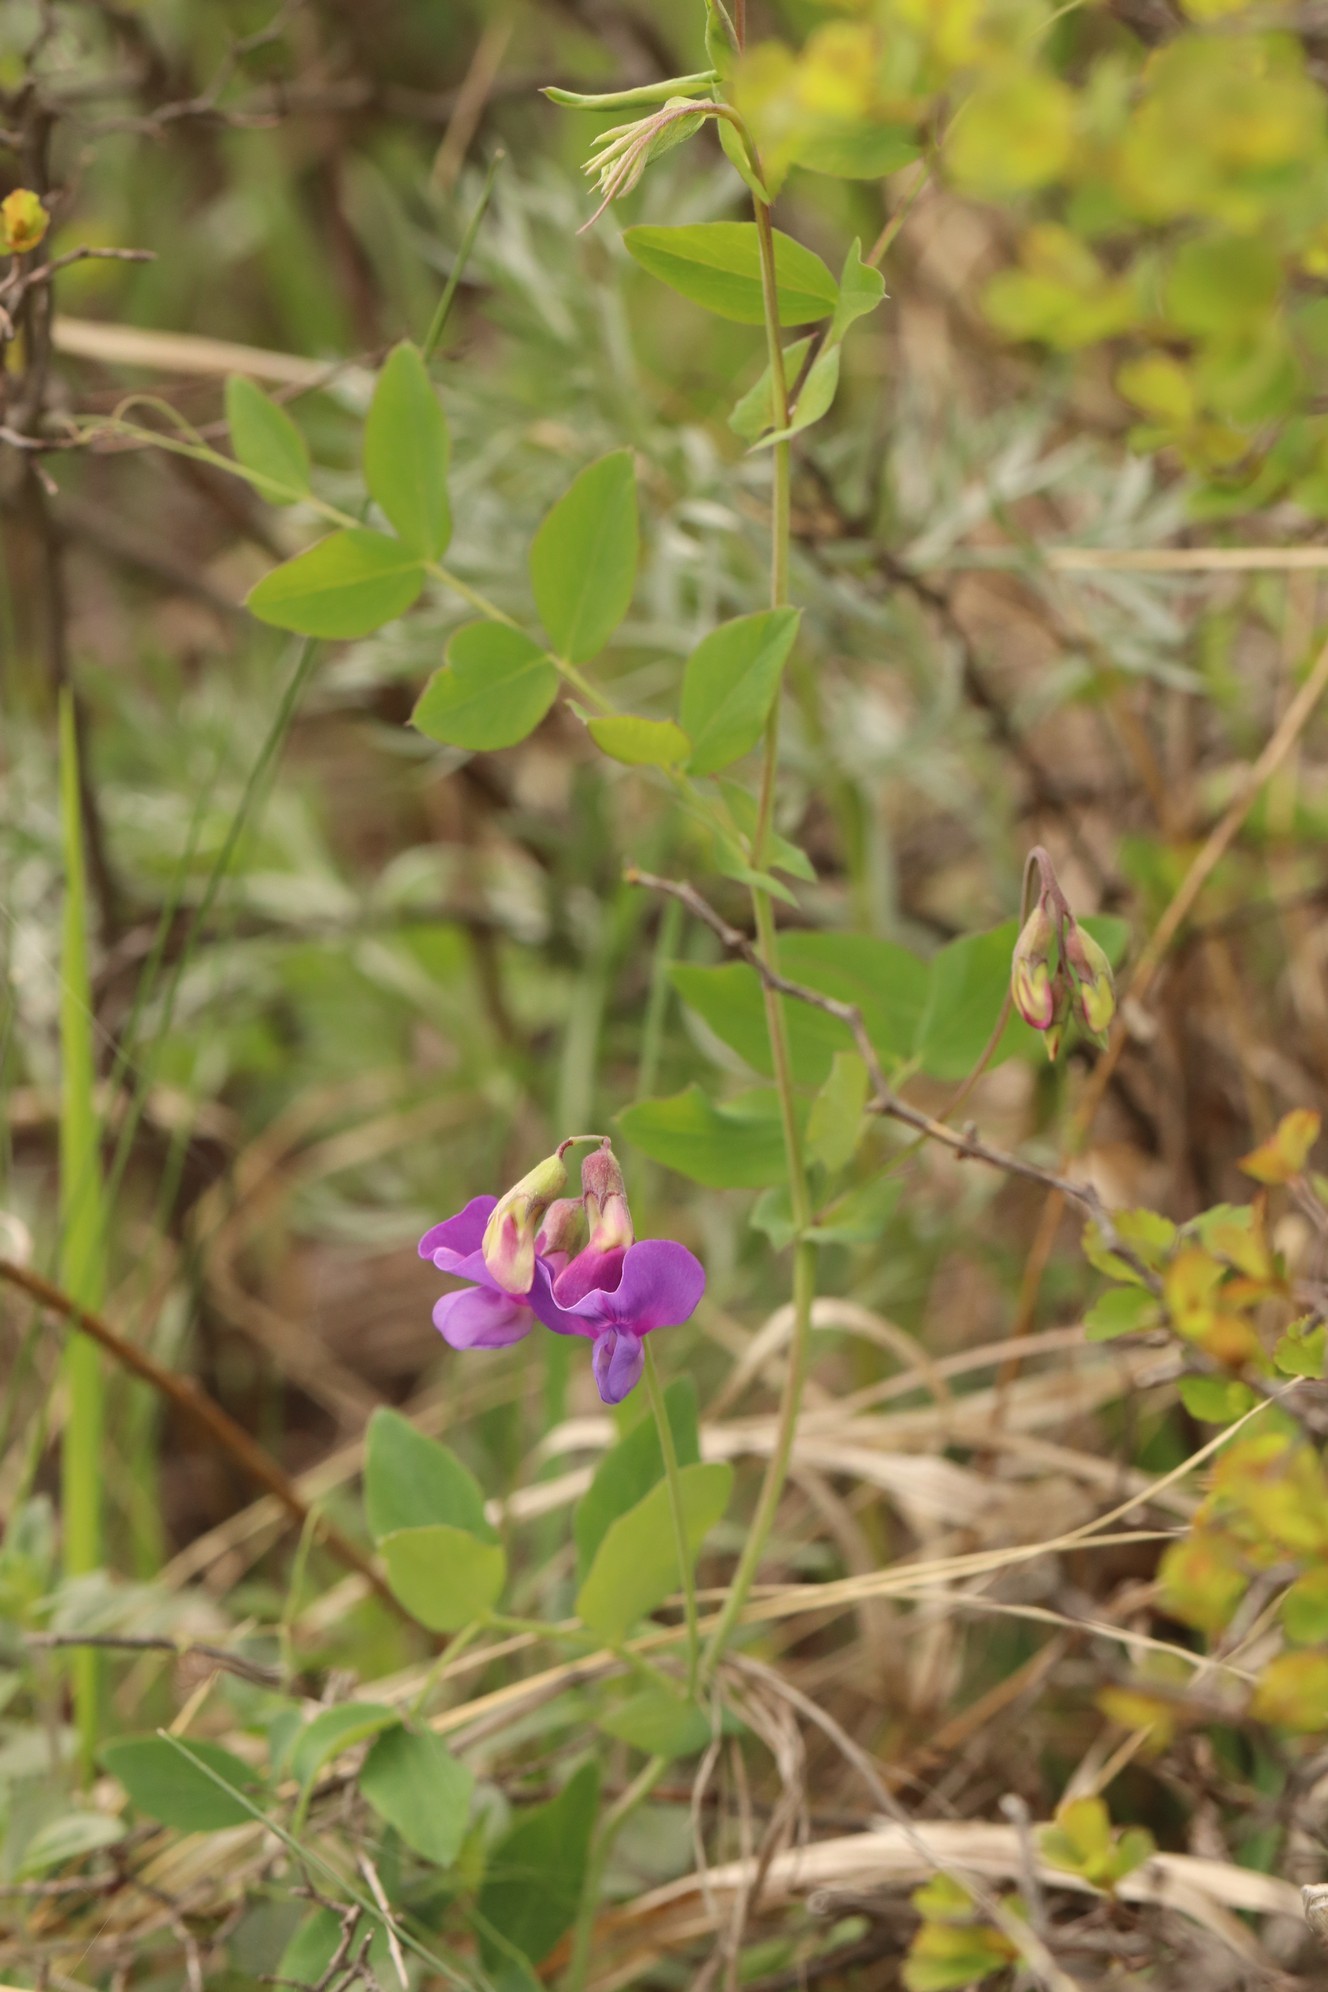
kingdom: Plantae
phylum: Tracheophyta
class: Magnoliopsida
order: Fabales
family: Fabaceae
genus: Lathyrus
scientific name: Lathyrus humilis
